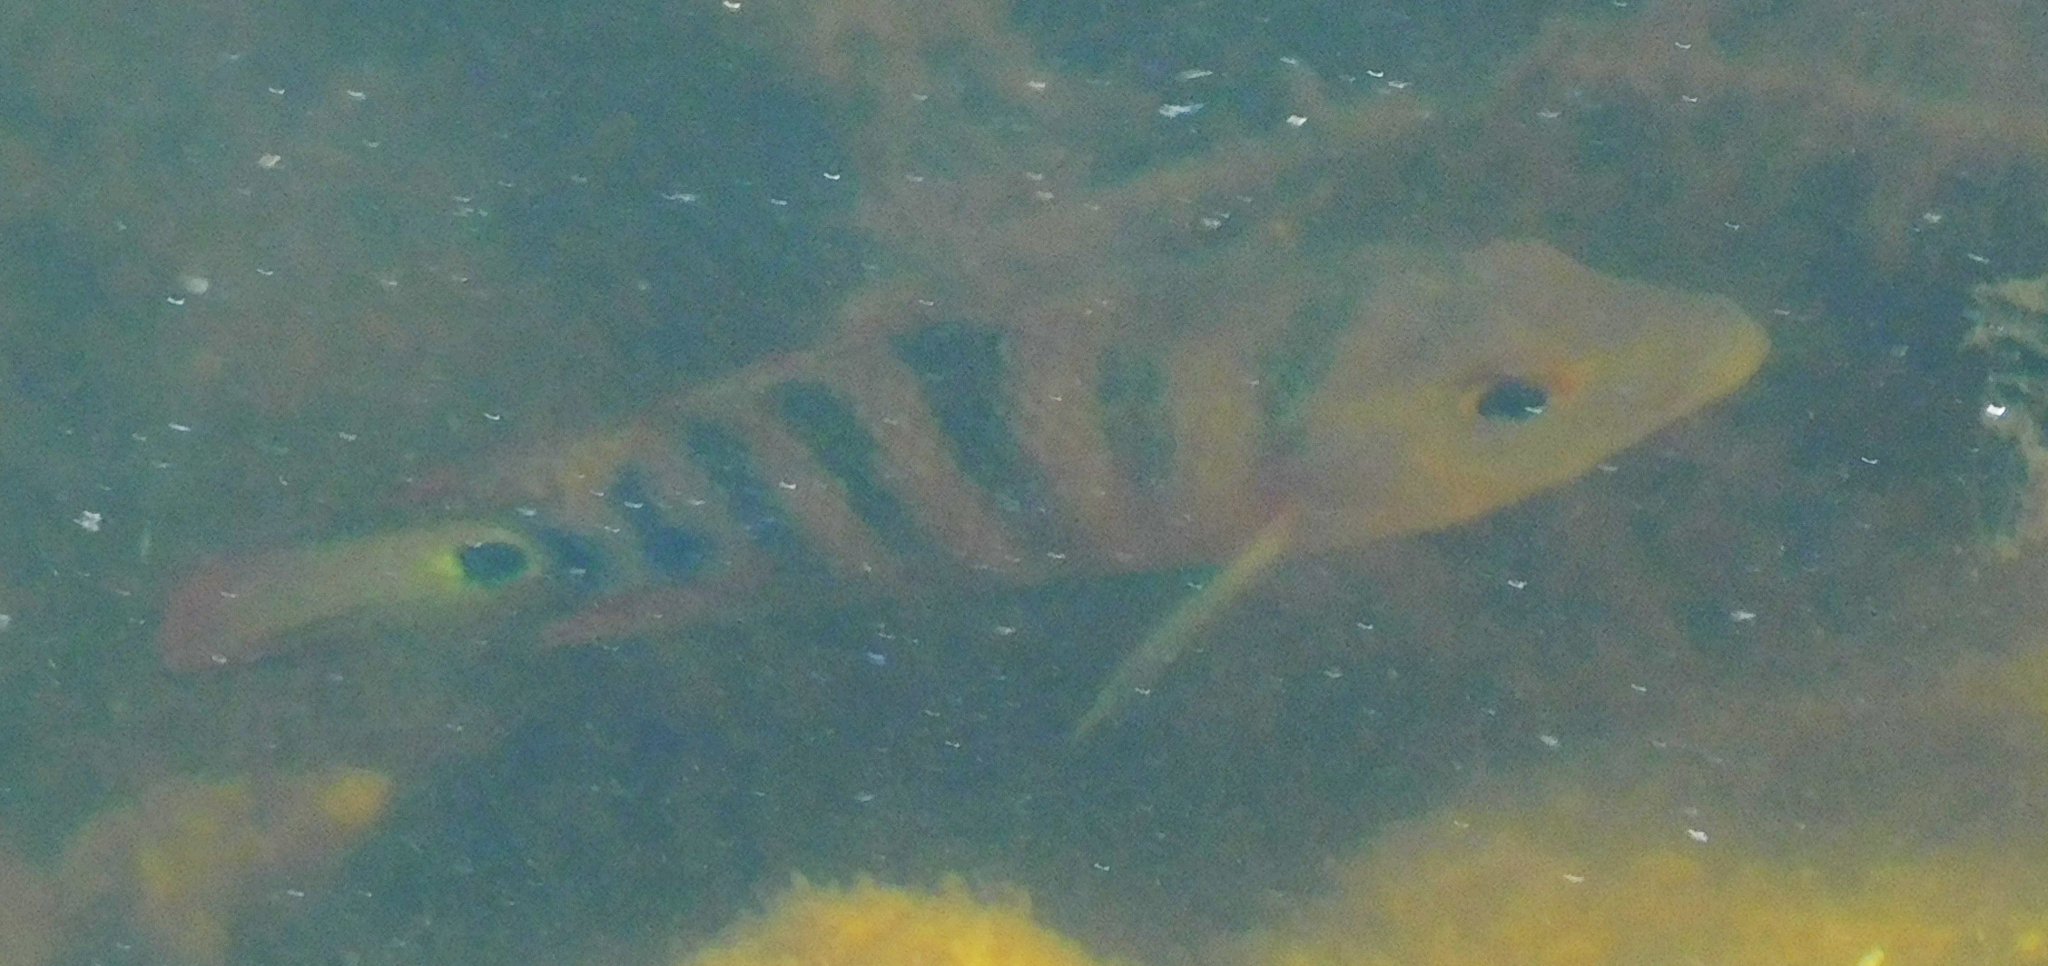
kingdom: Animalia
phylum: Chordata
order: Perciformes
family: Cichlidae
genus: Mayaheros
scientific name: Mayaheros urophthalmus
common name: Mayan cichlid
